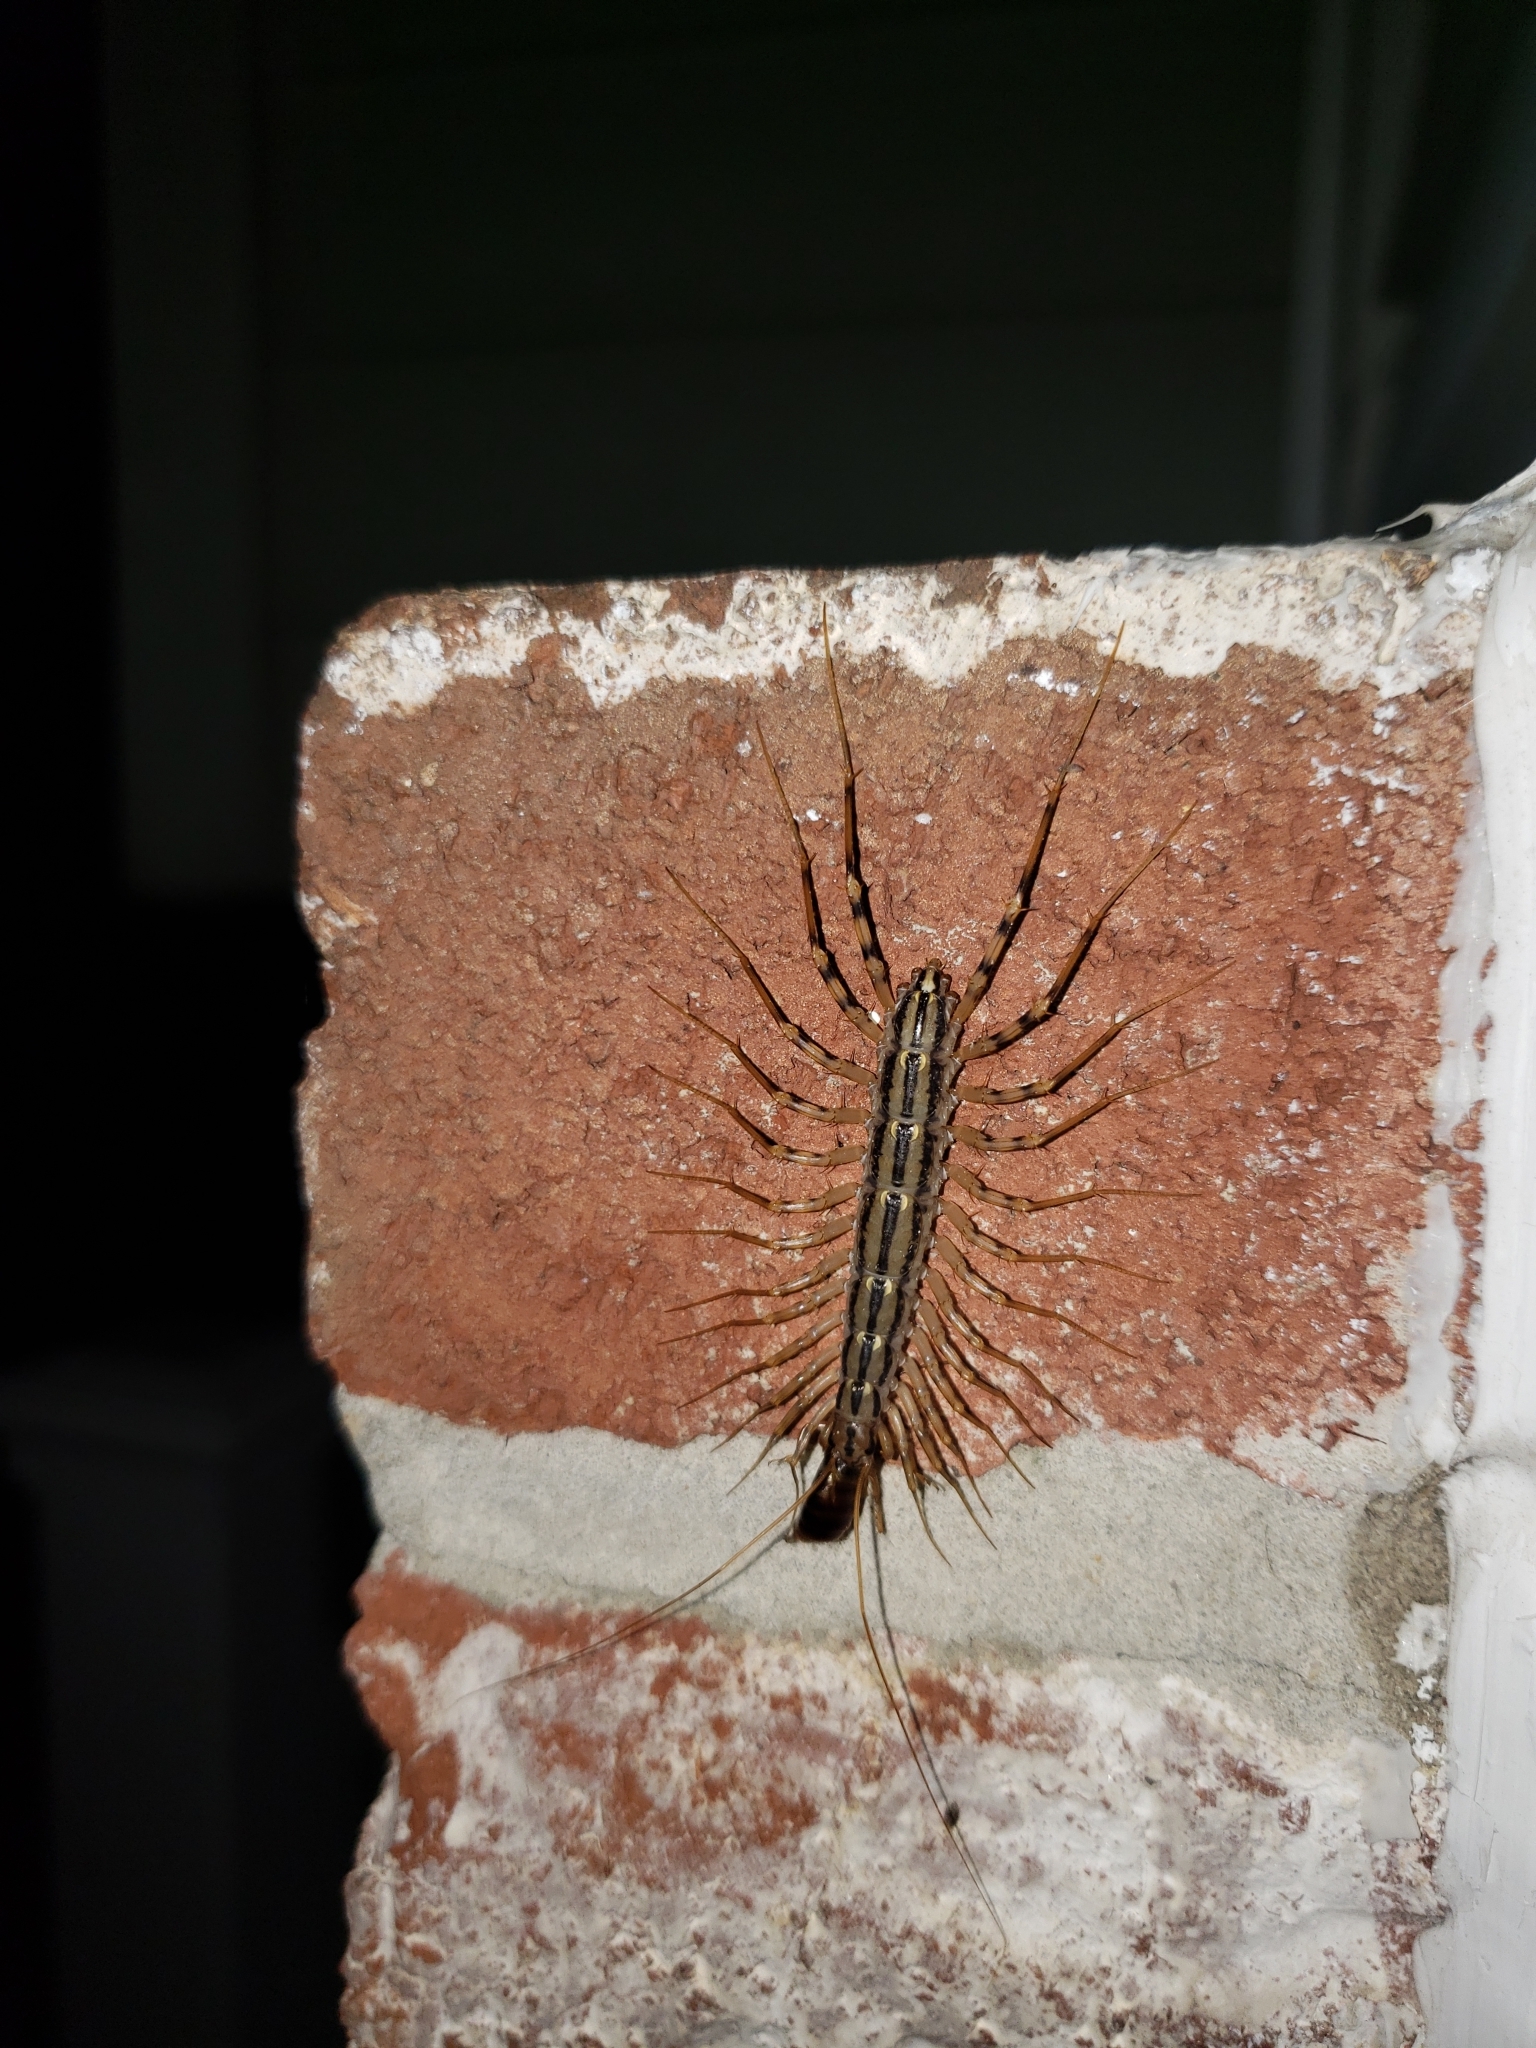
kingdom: Animalia
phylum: Arthropoda
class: Chilopoda
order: Scutigeromorpha
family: Scutigeridae
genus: Scutigera
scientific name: Scutigera coleoptrata
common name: House centipede
